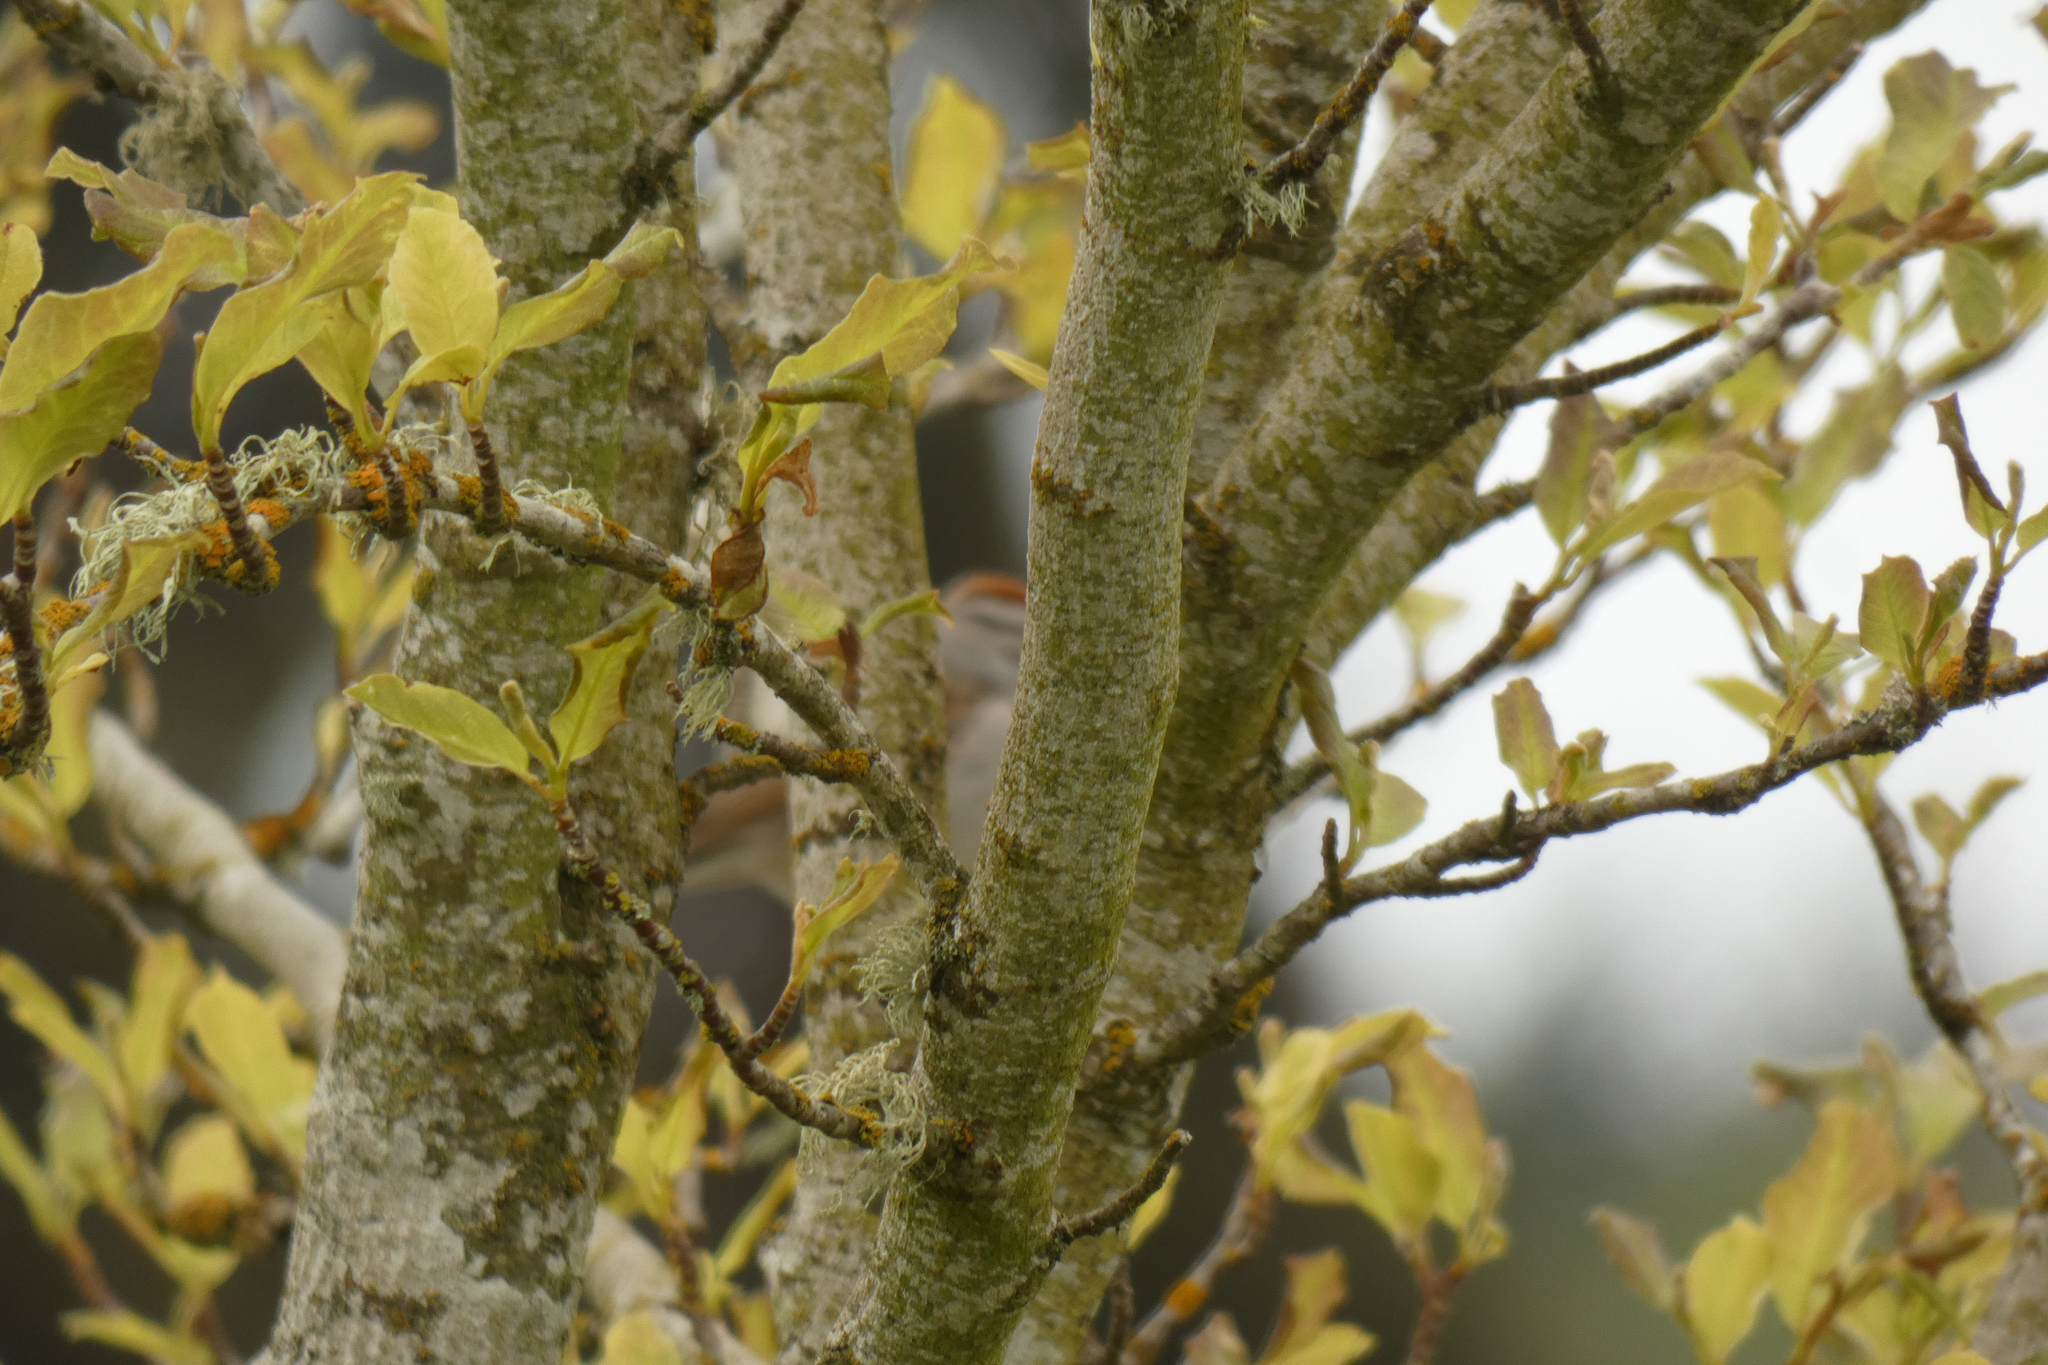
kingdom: Animalia
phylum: Chordata
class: Aves
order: Passeriformes
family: Passerellidae
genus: Spizella
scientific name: Spizella passerina
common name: Chipping sparrow
